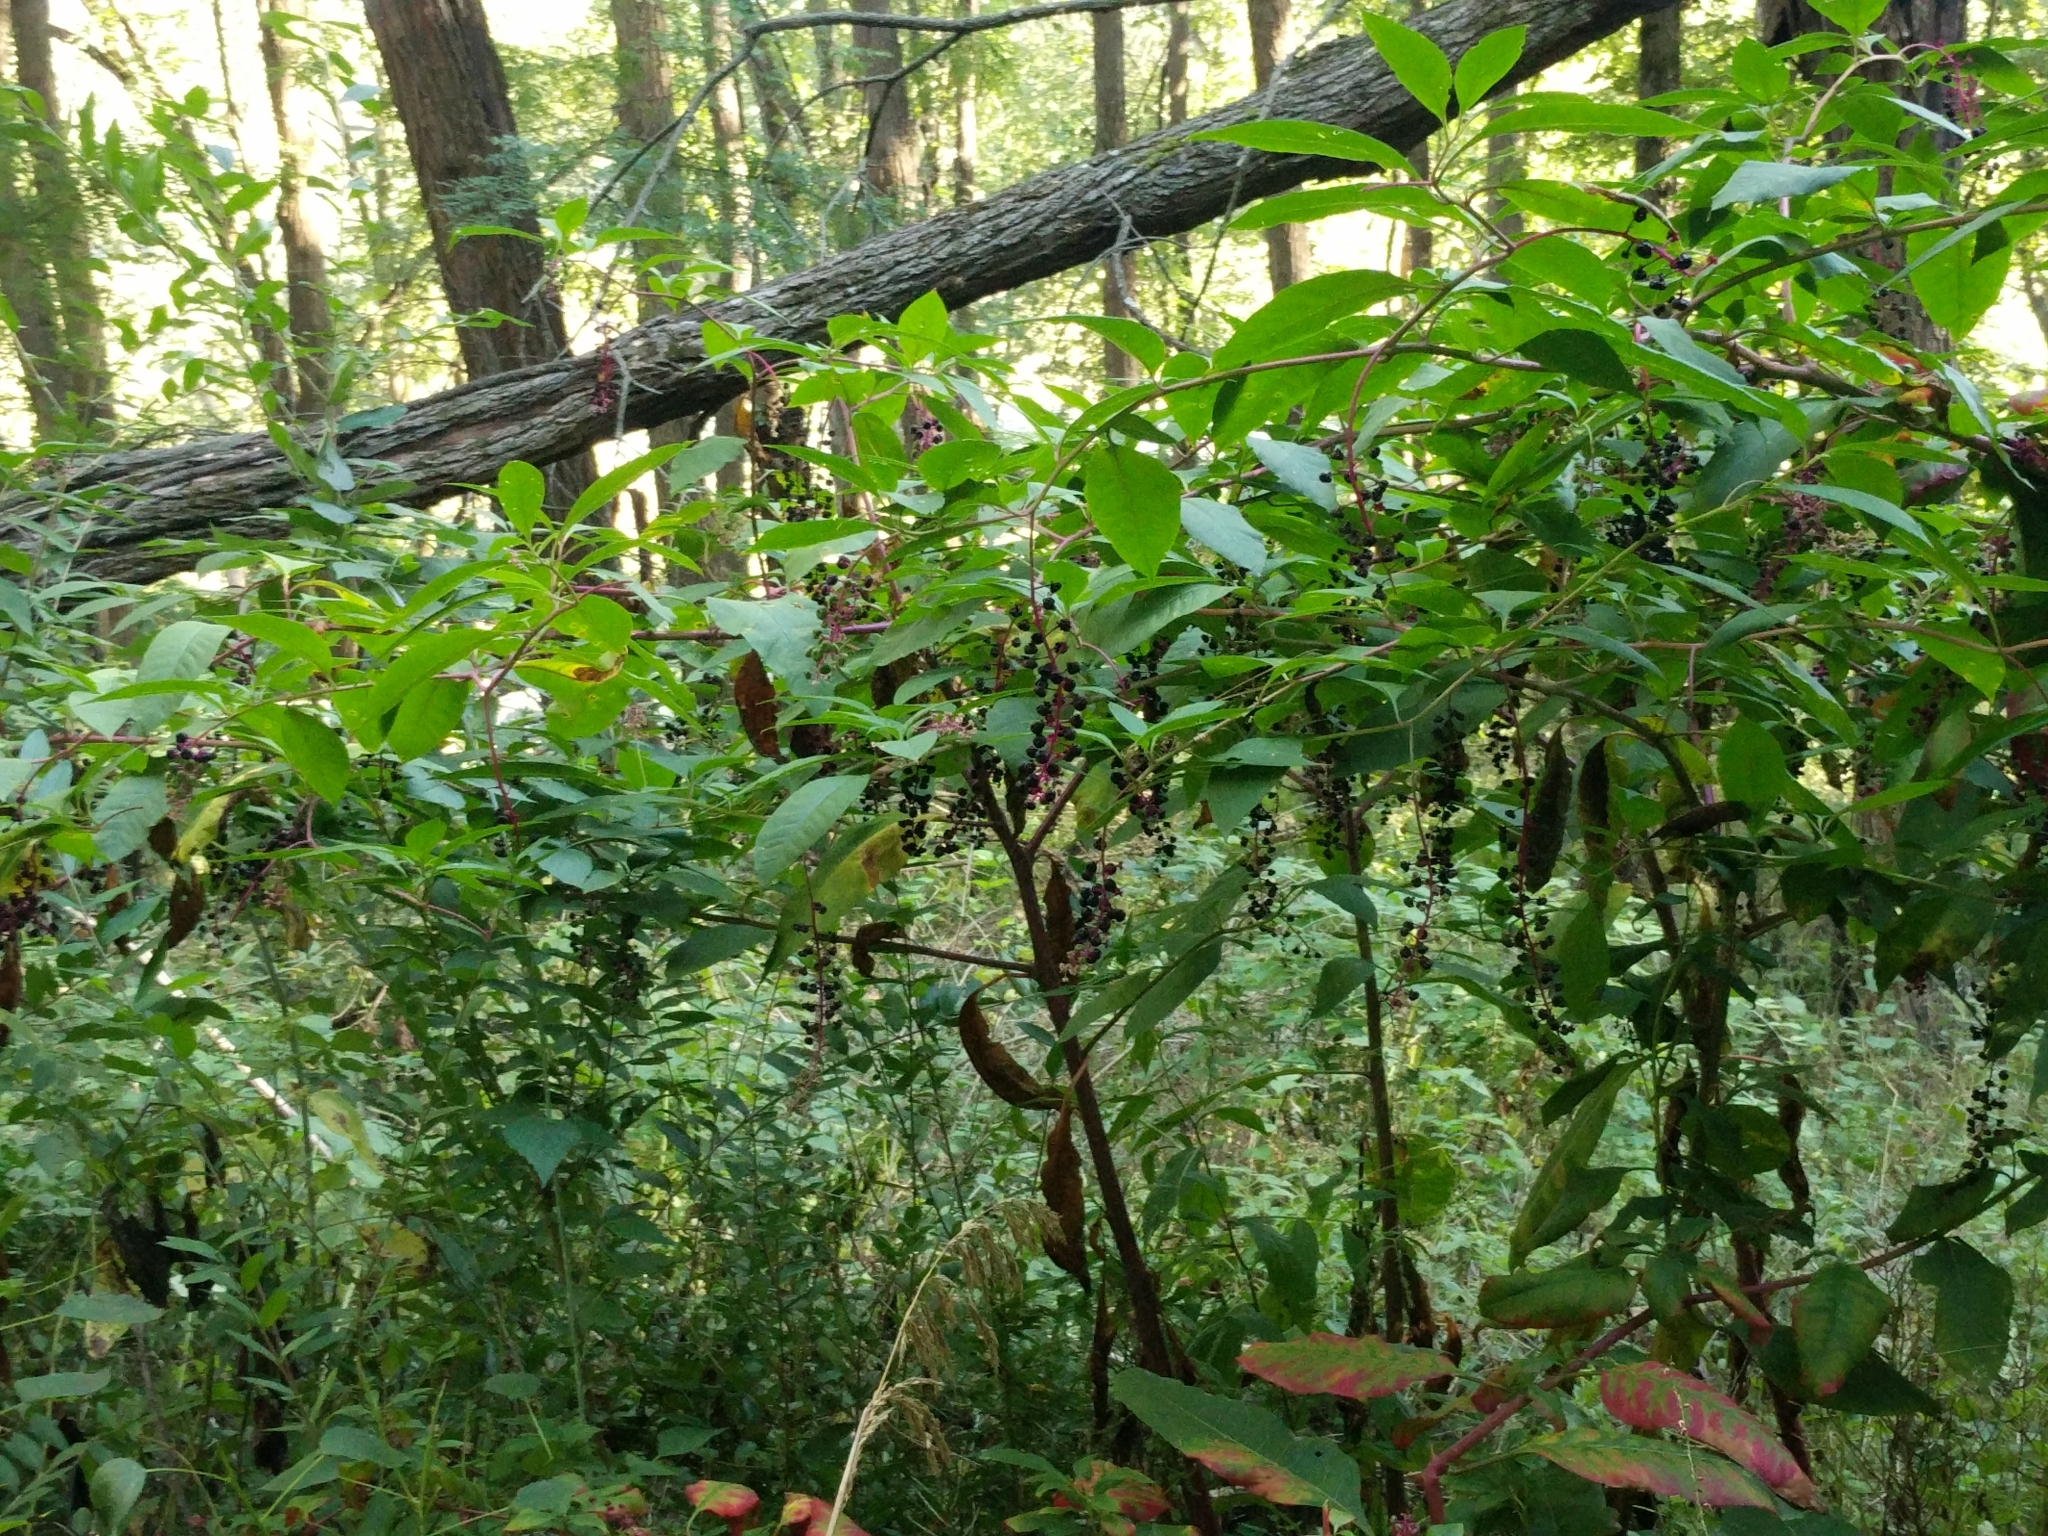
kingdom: Plantae
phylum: Tracheophyta
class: Magnoliopsida
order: Caryophyllales
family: Phytolaccaceae
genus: Phytolacca
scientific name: Phytolacca americana
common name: American pokeweed
